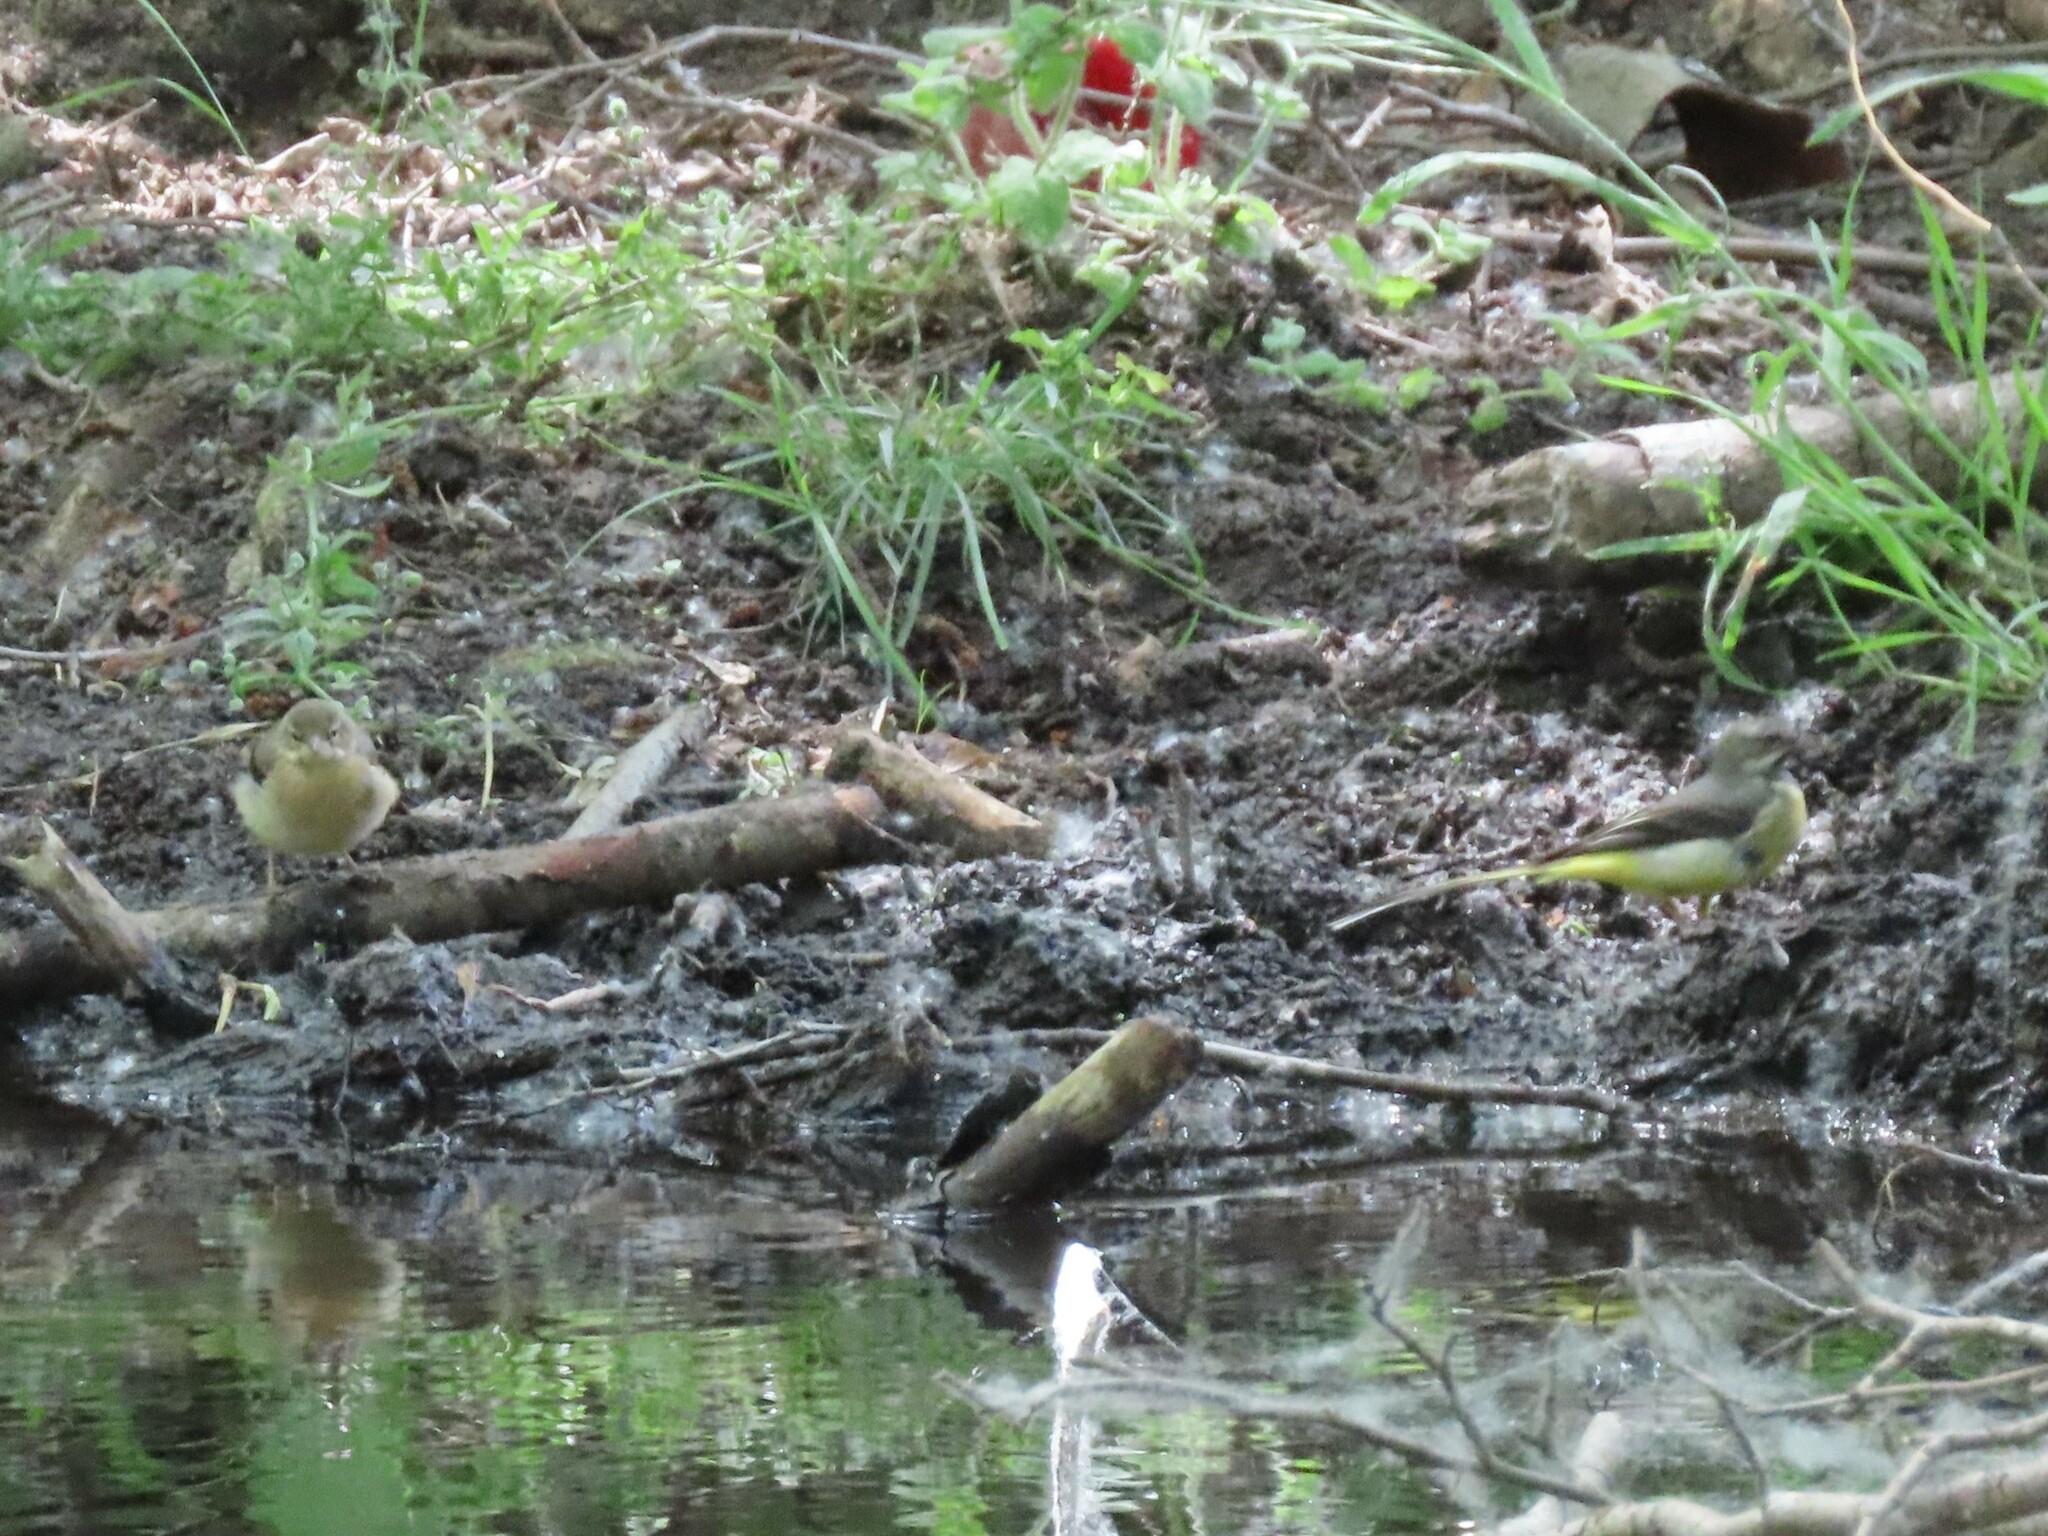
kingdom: Animalia
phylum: Chordata
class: Aves
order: Passeriformes
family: Motacillidae
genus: Motacilla
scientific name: Motacilla cinerea
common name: Grey wagtail
